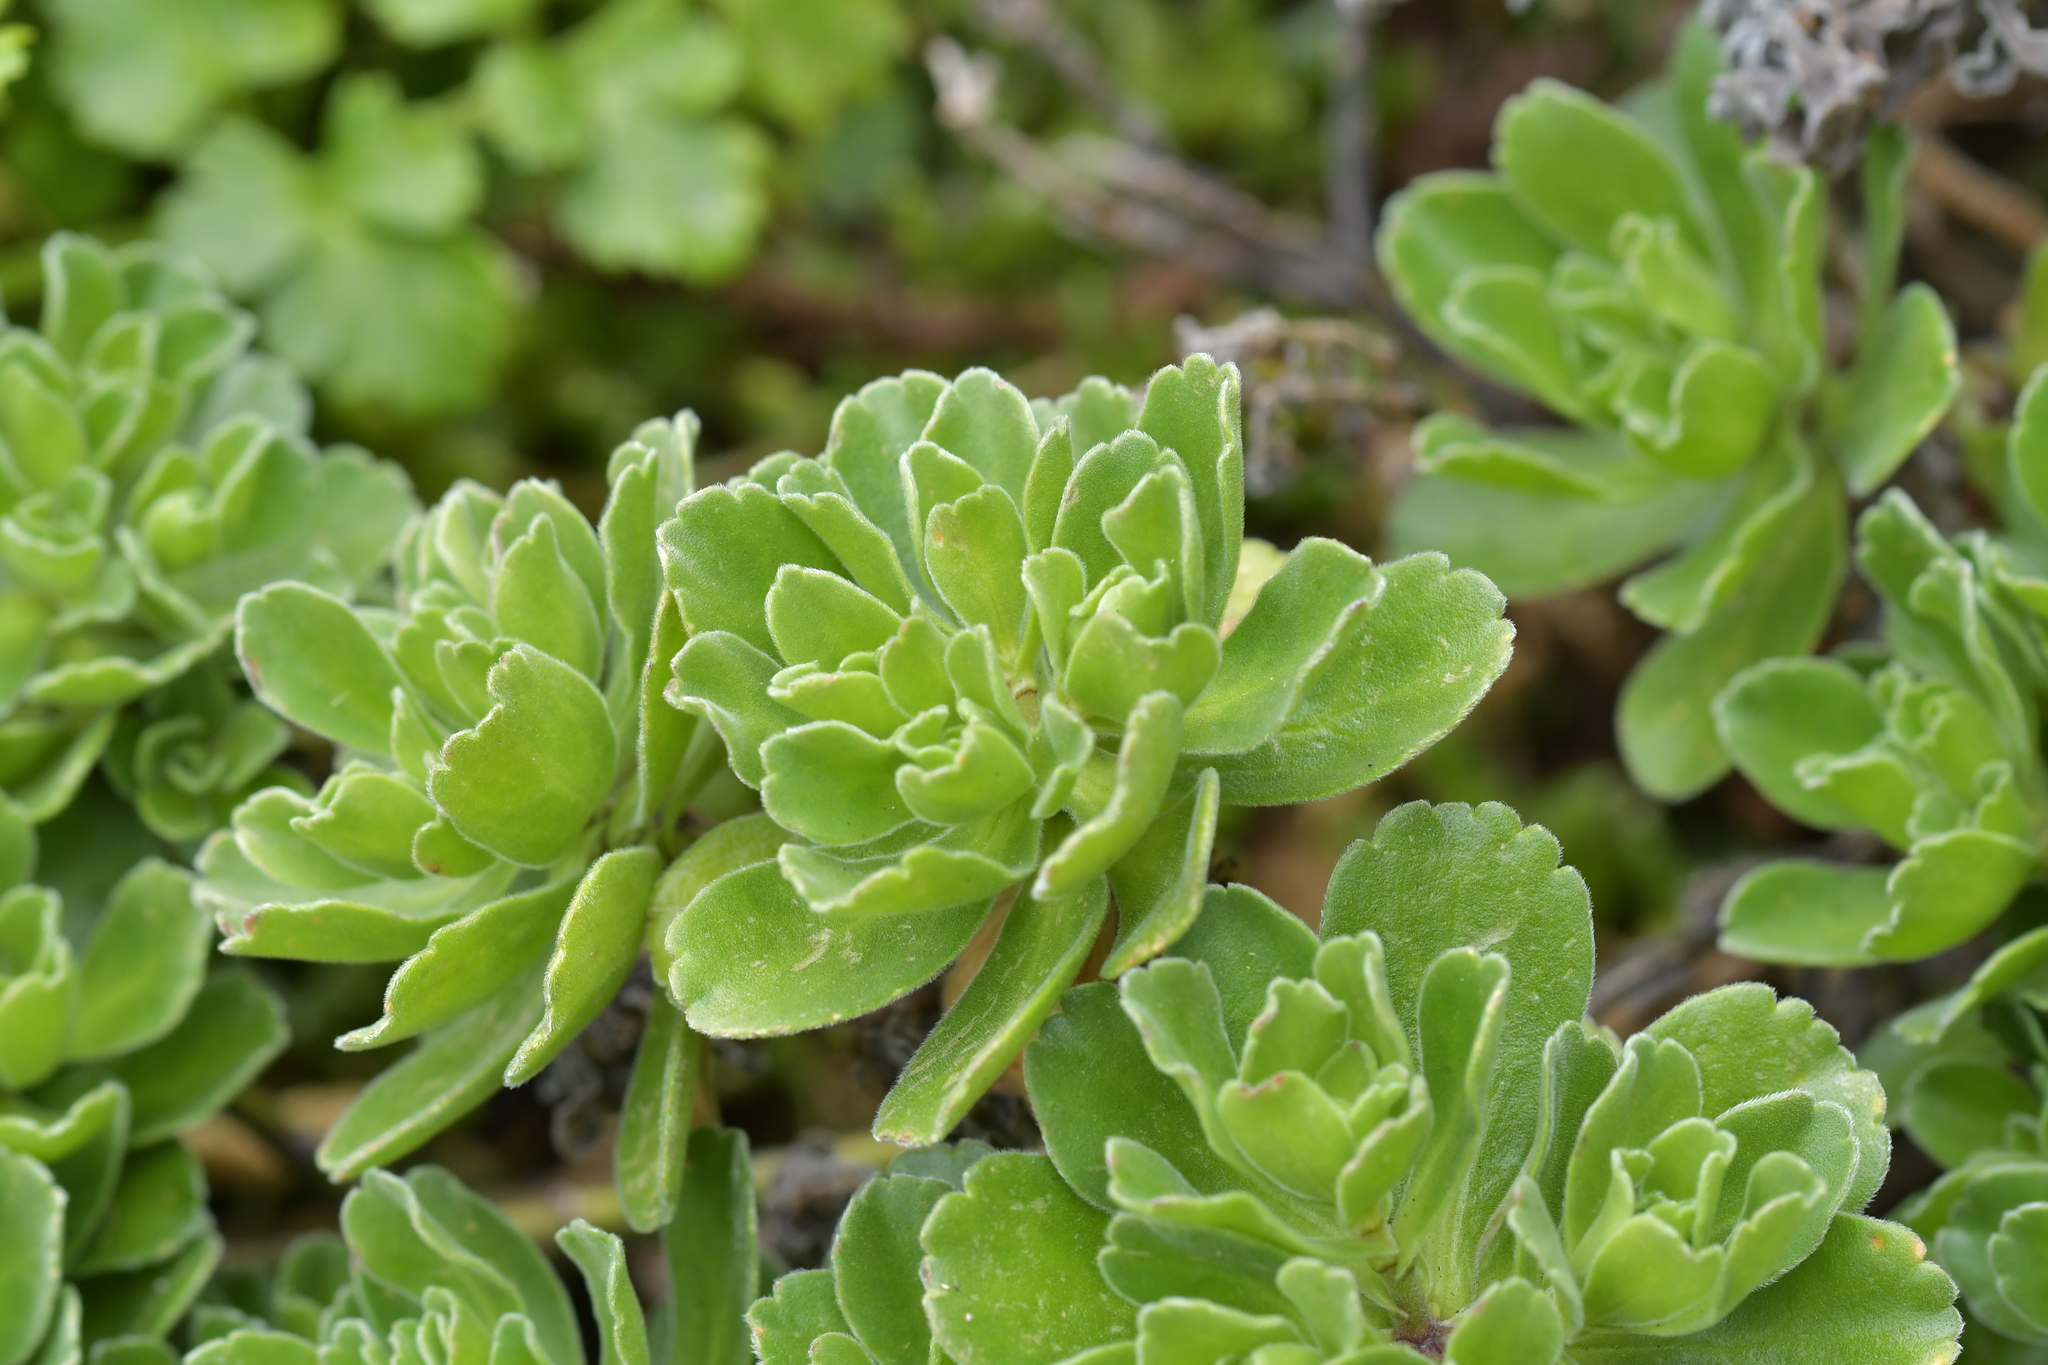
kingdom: Plantae
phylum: Tracheophyta
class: Magnoliopsida
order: Asterales
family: Asteraceae
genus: Leptinella
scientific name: Leptinella featherstonii
